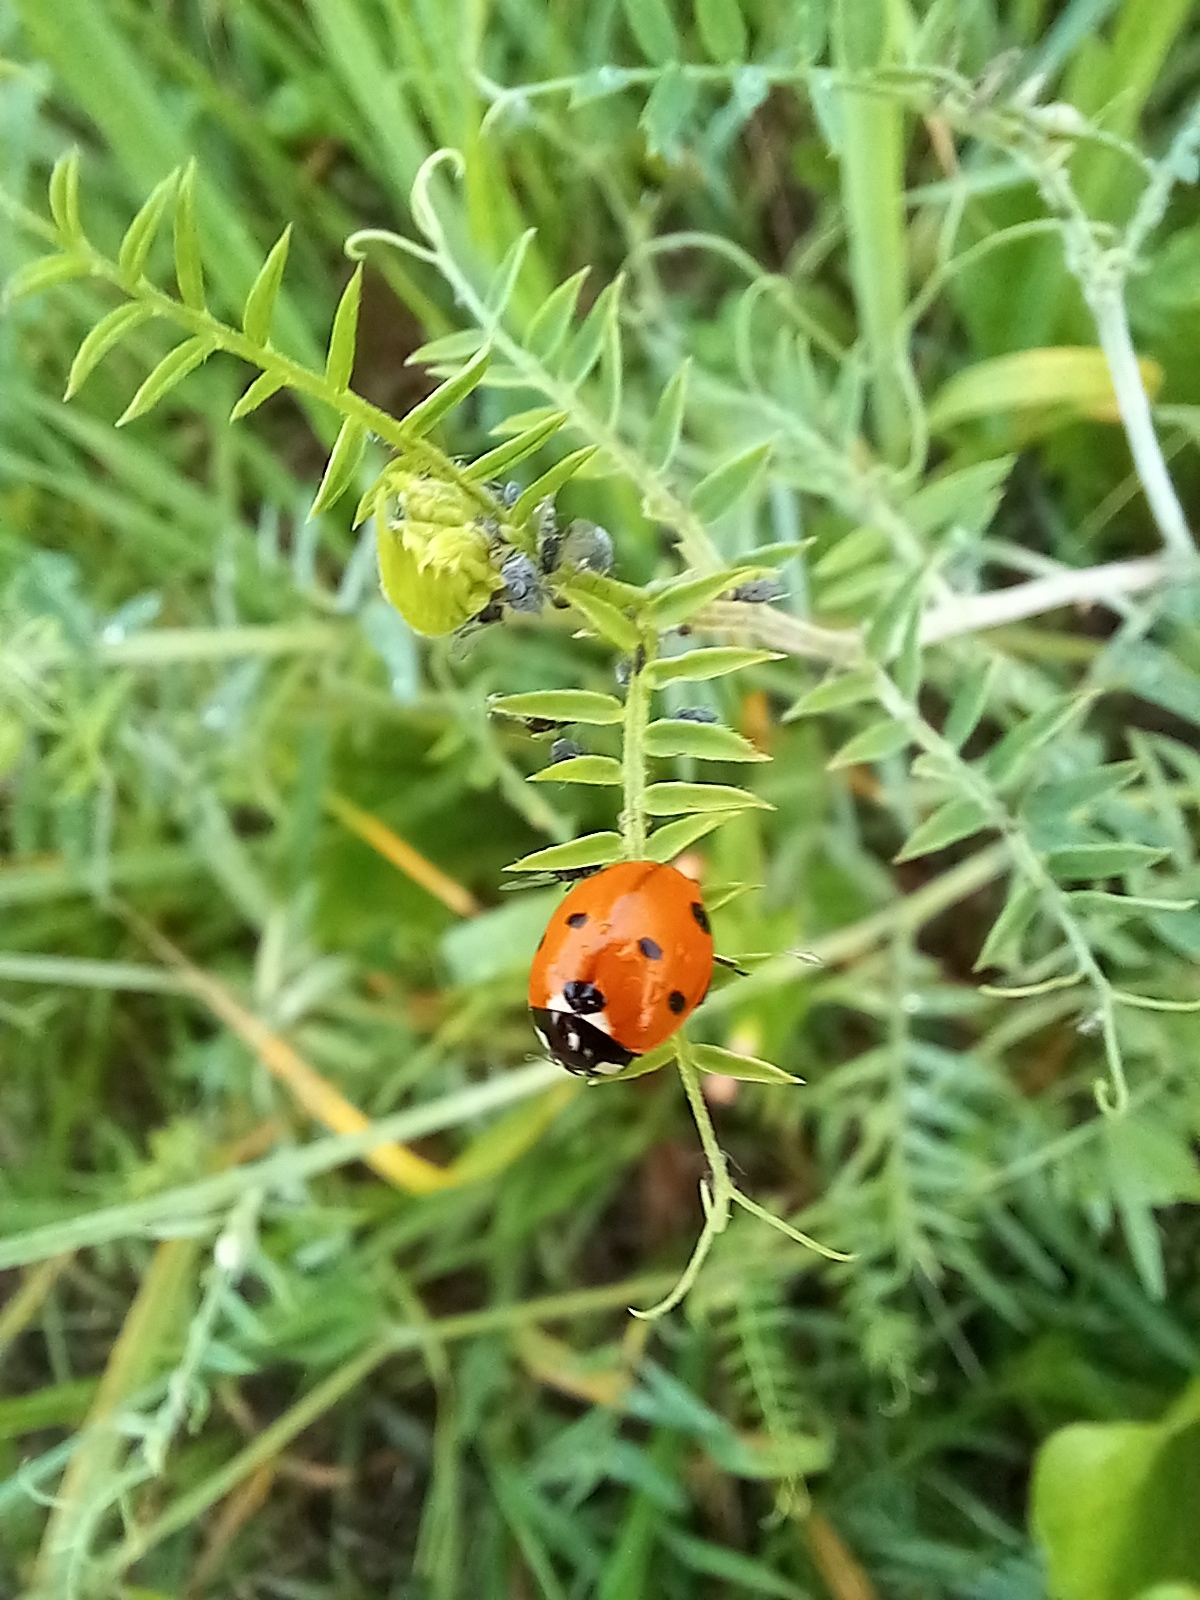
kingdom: Animalia
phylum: Arthropoda
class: Insecta
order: Coleoptera
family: Coccinellidae
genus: Coccinella
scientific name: Coccinella septempunctata
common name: Sevenspotted lady beetle
